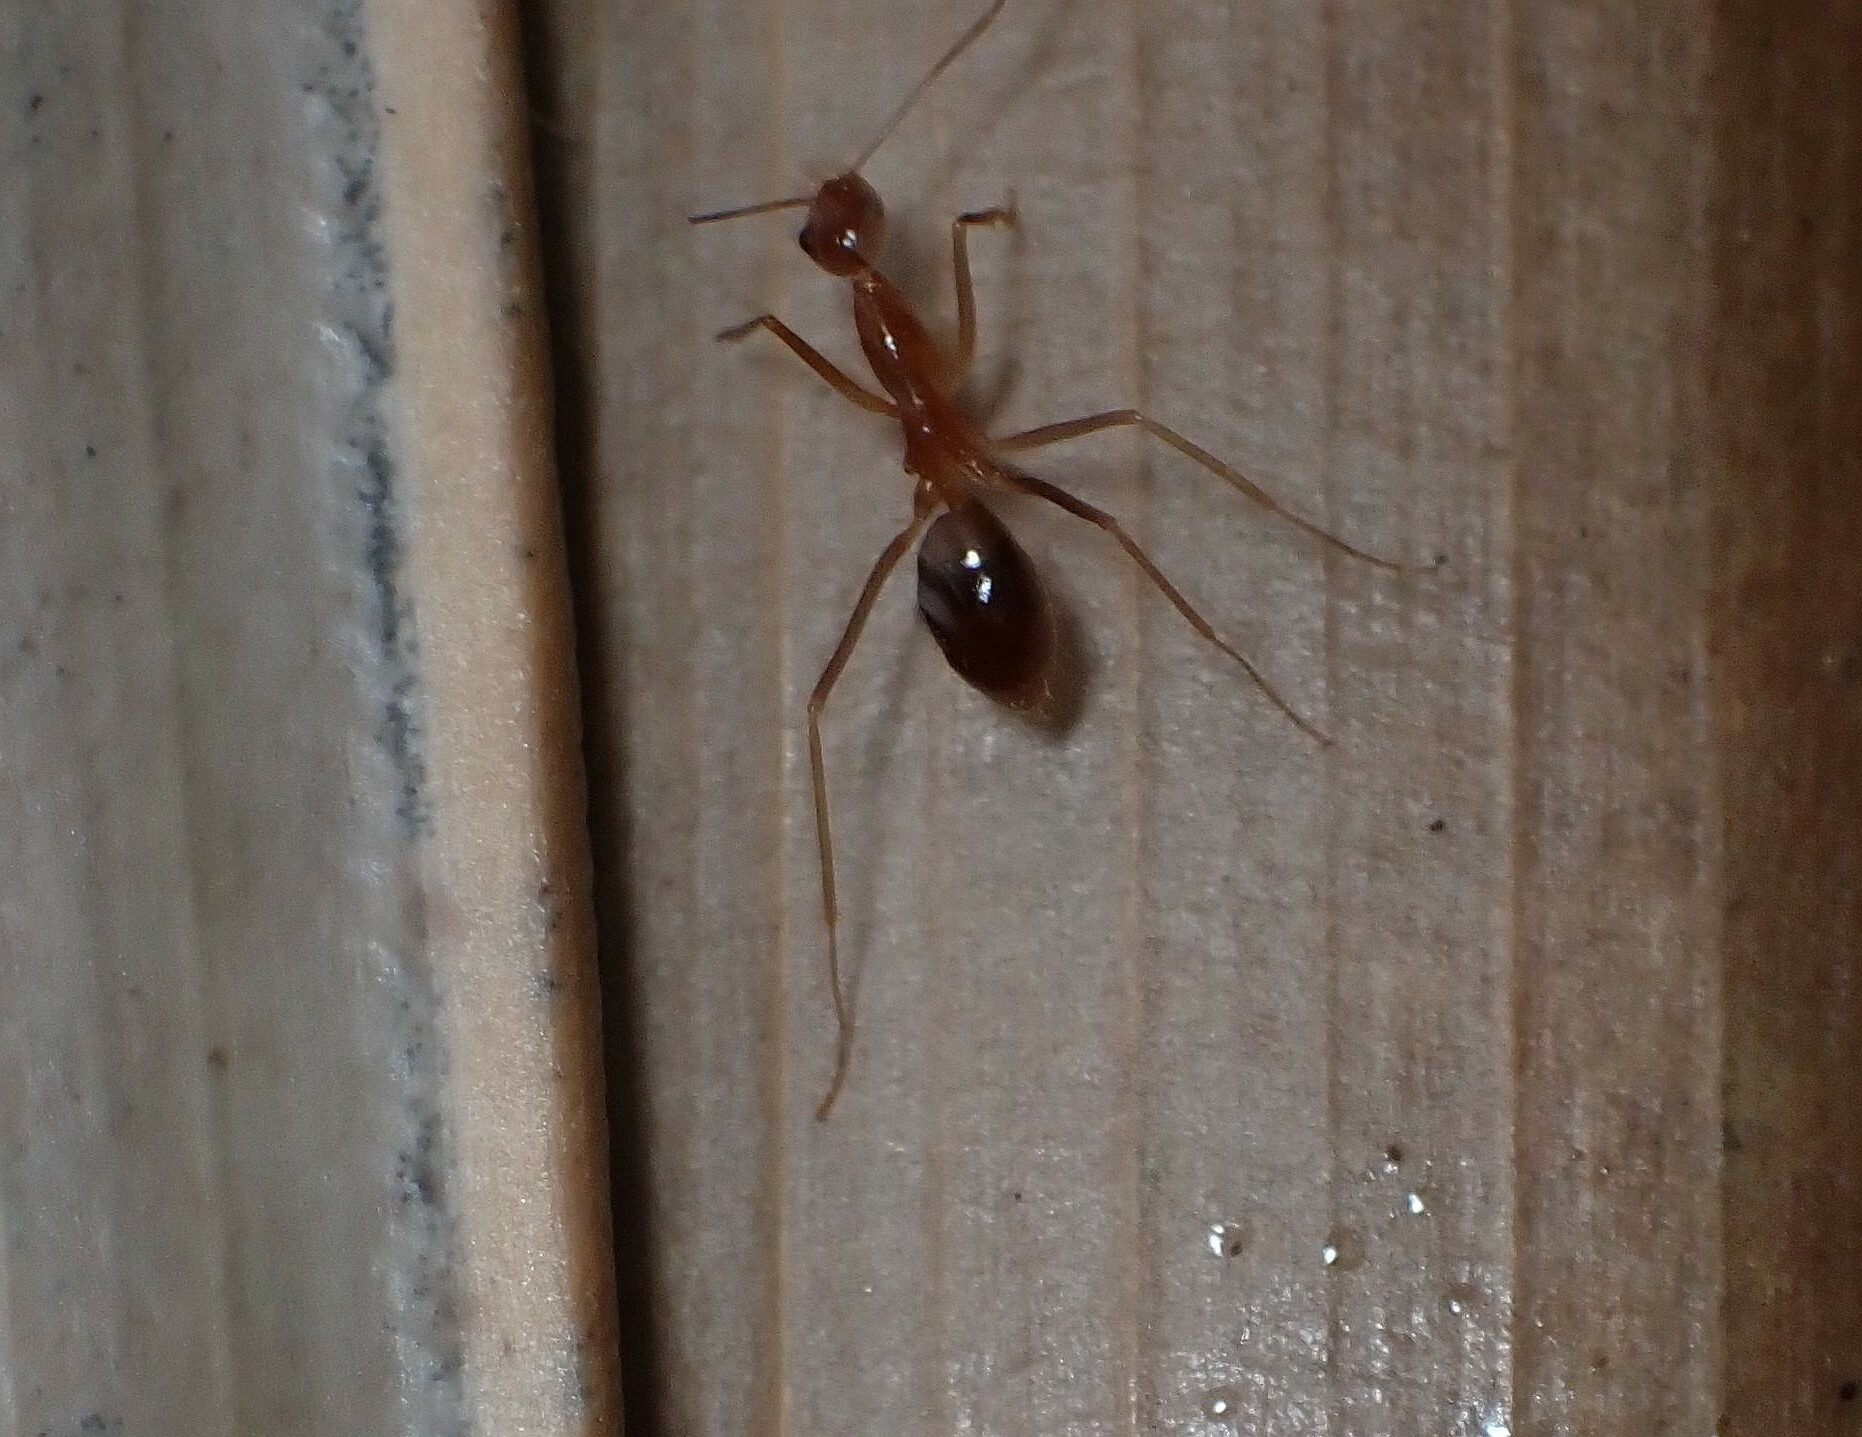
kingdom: Animalia
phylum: Arthropoda
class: Insecta
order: Hymenoptera
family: Formicidae
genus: Anoplolepis
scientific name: Anoplolepis gracilipes
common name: Ant
